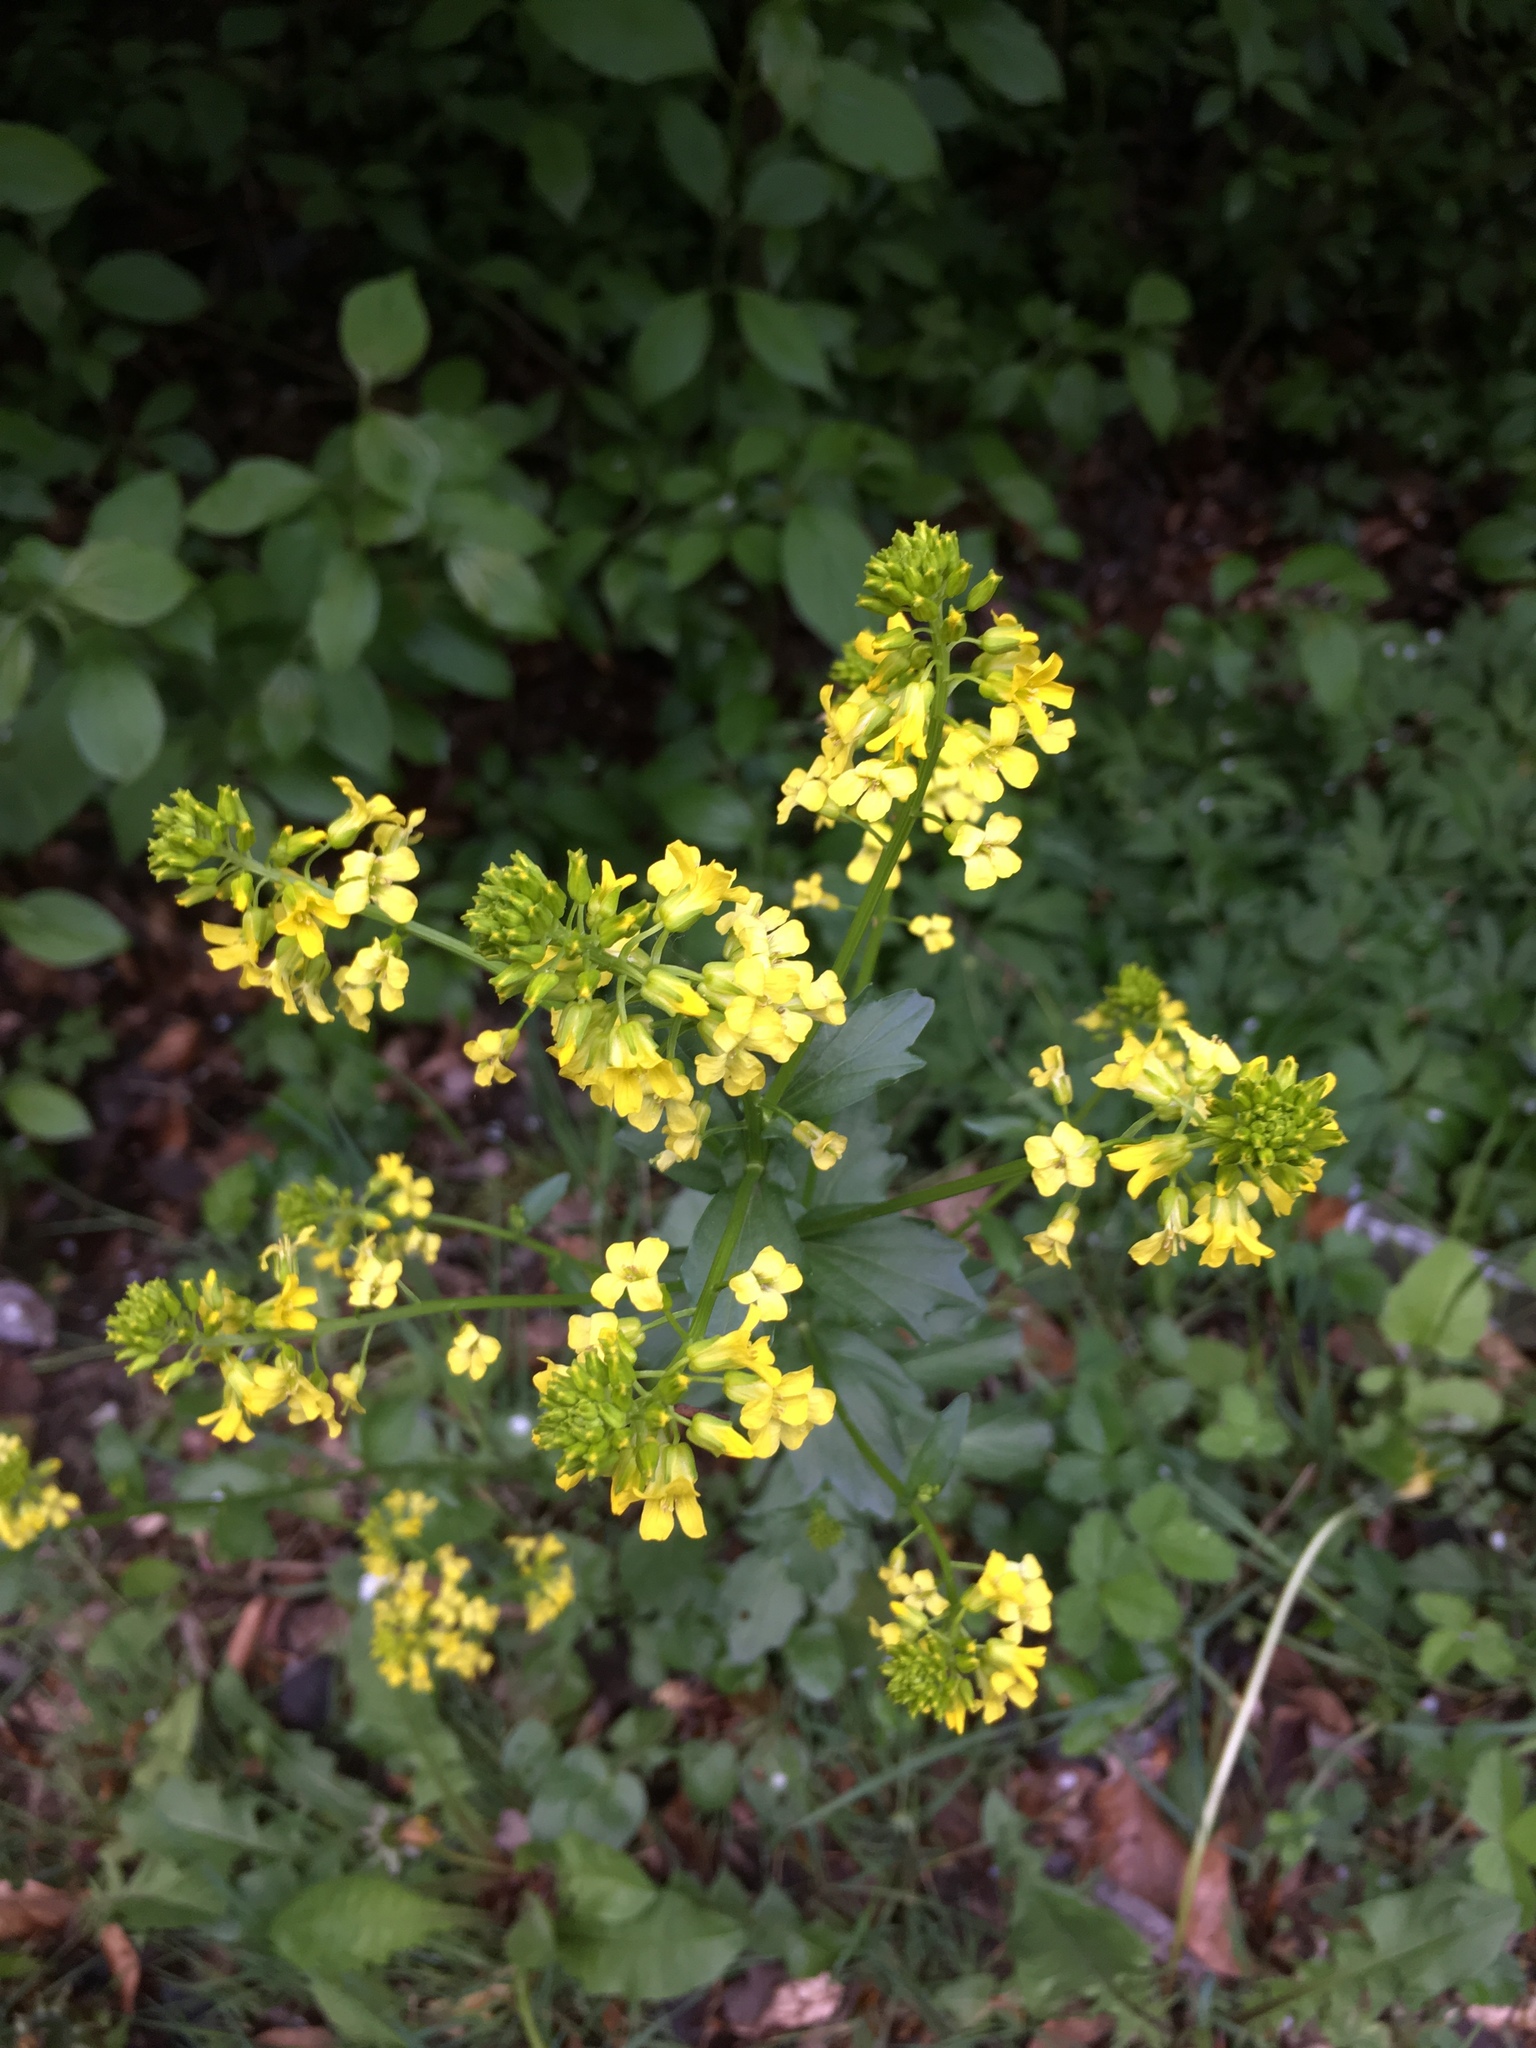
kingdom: Plantae
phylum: Tracheophyta
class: Magnoliopsida
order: Brassicales
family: Brassicaceae
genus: Barbarea
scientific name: Barbarea vulgaris
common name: Cressy-greens
